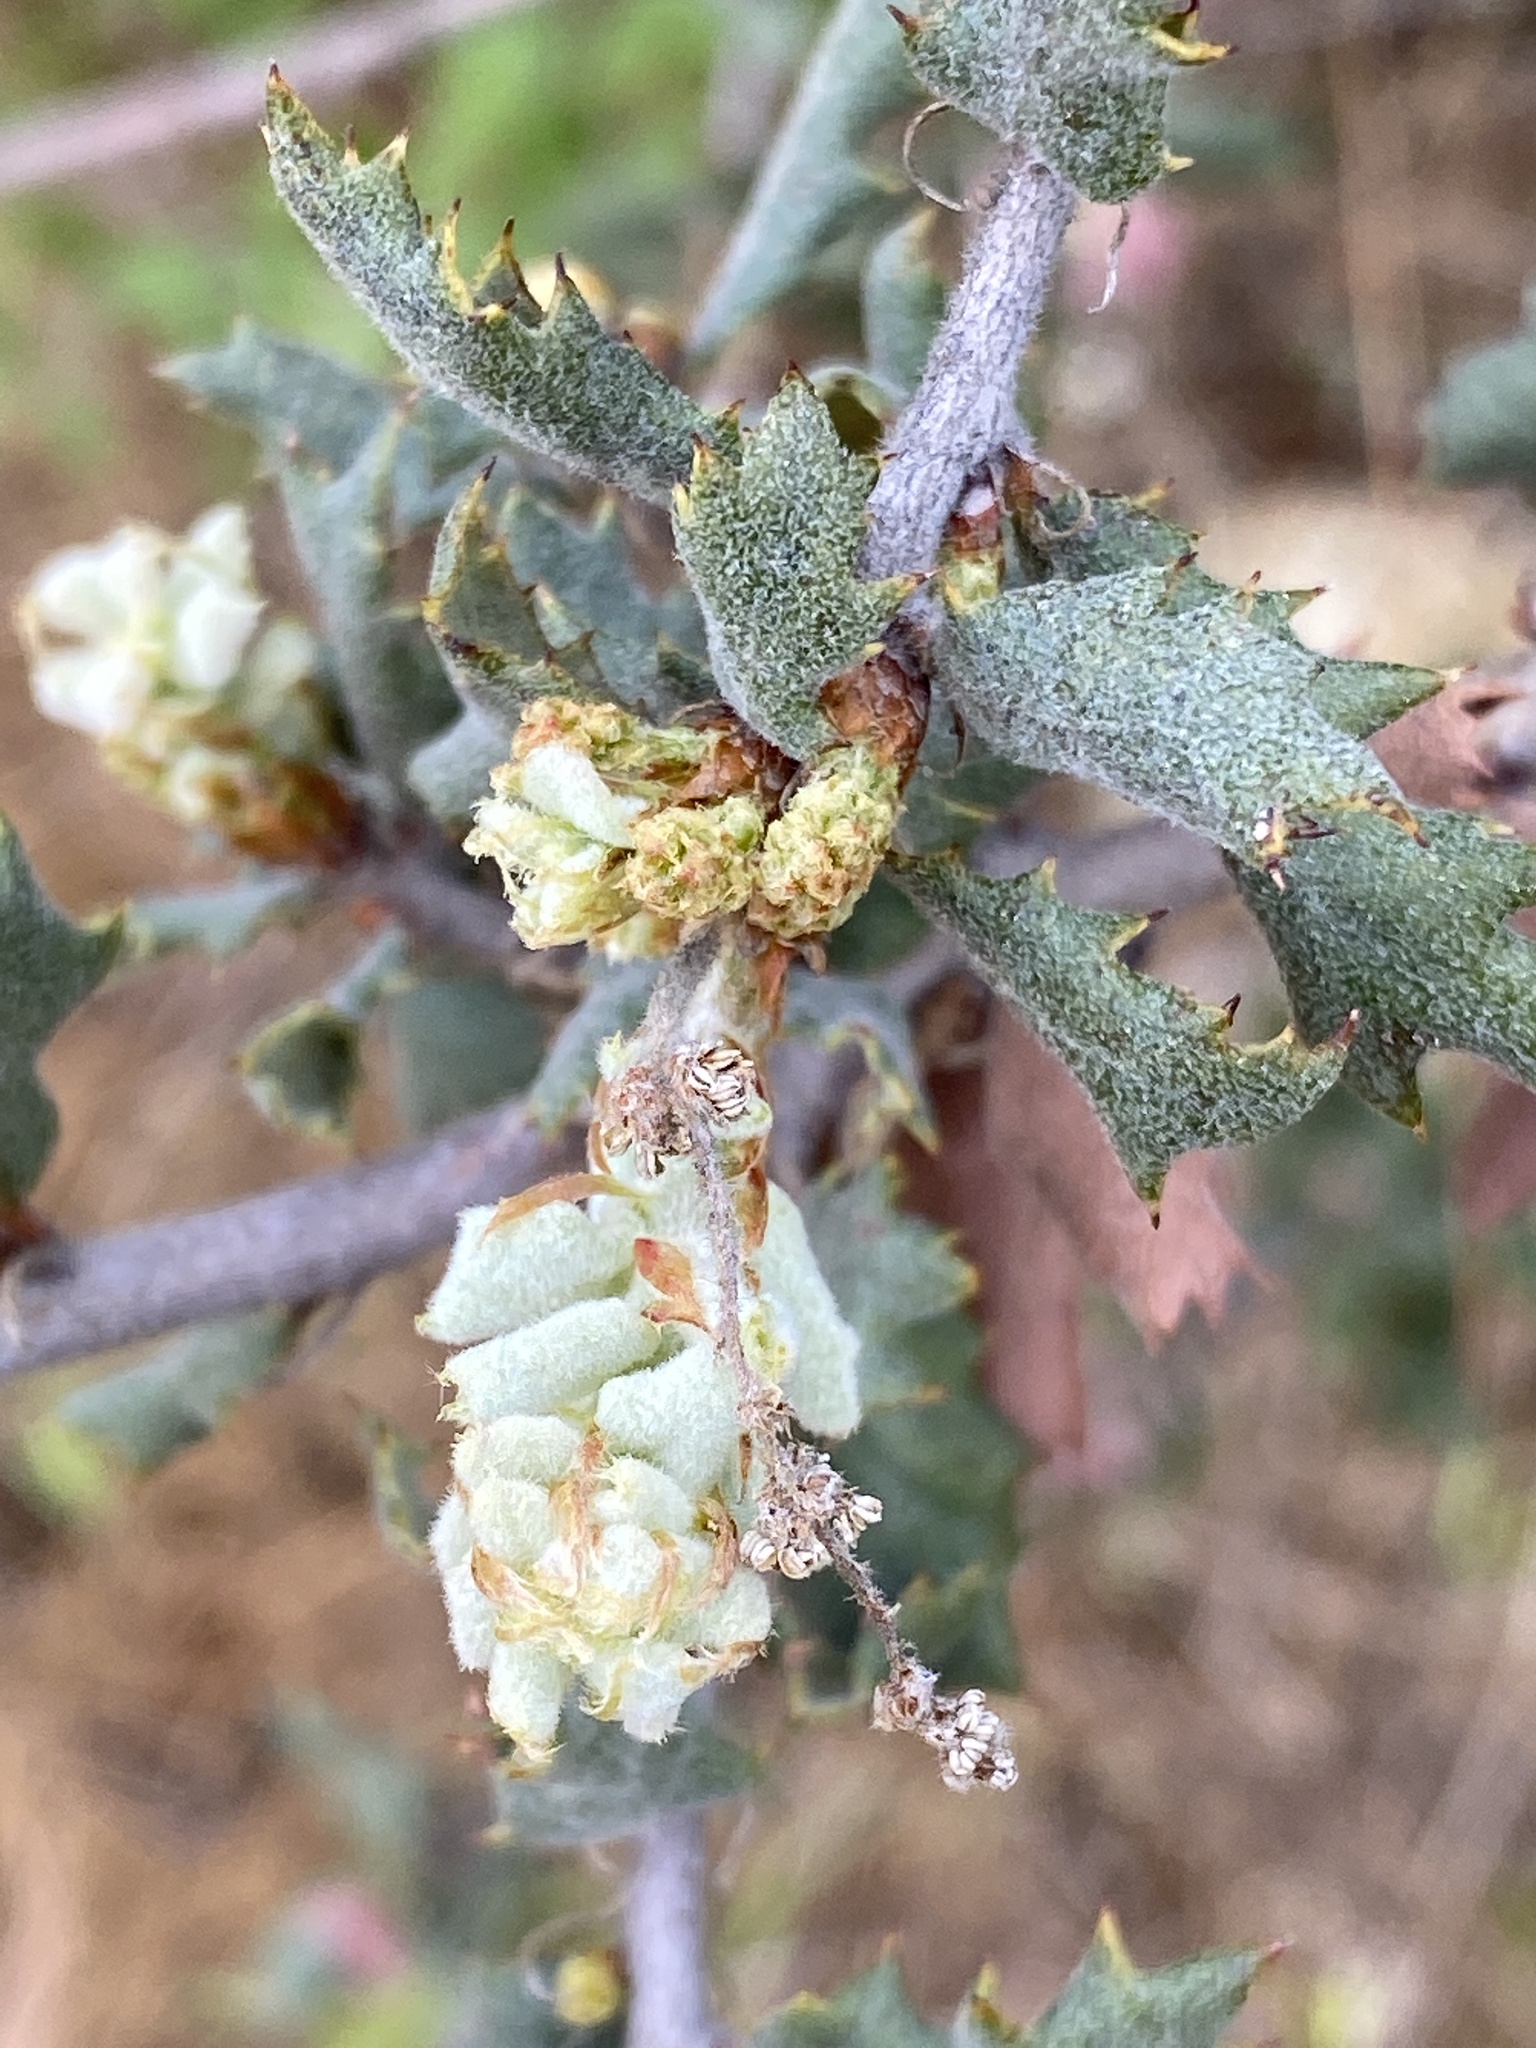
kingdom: Plantae
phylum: Tracheophyta
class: Magnoliopsida
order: Fagales
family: Fagaceae
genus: Quercus
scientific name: Quercus durata
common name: Leather oak
